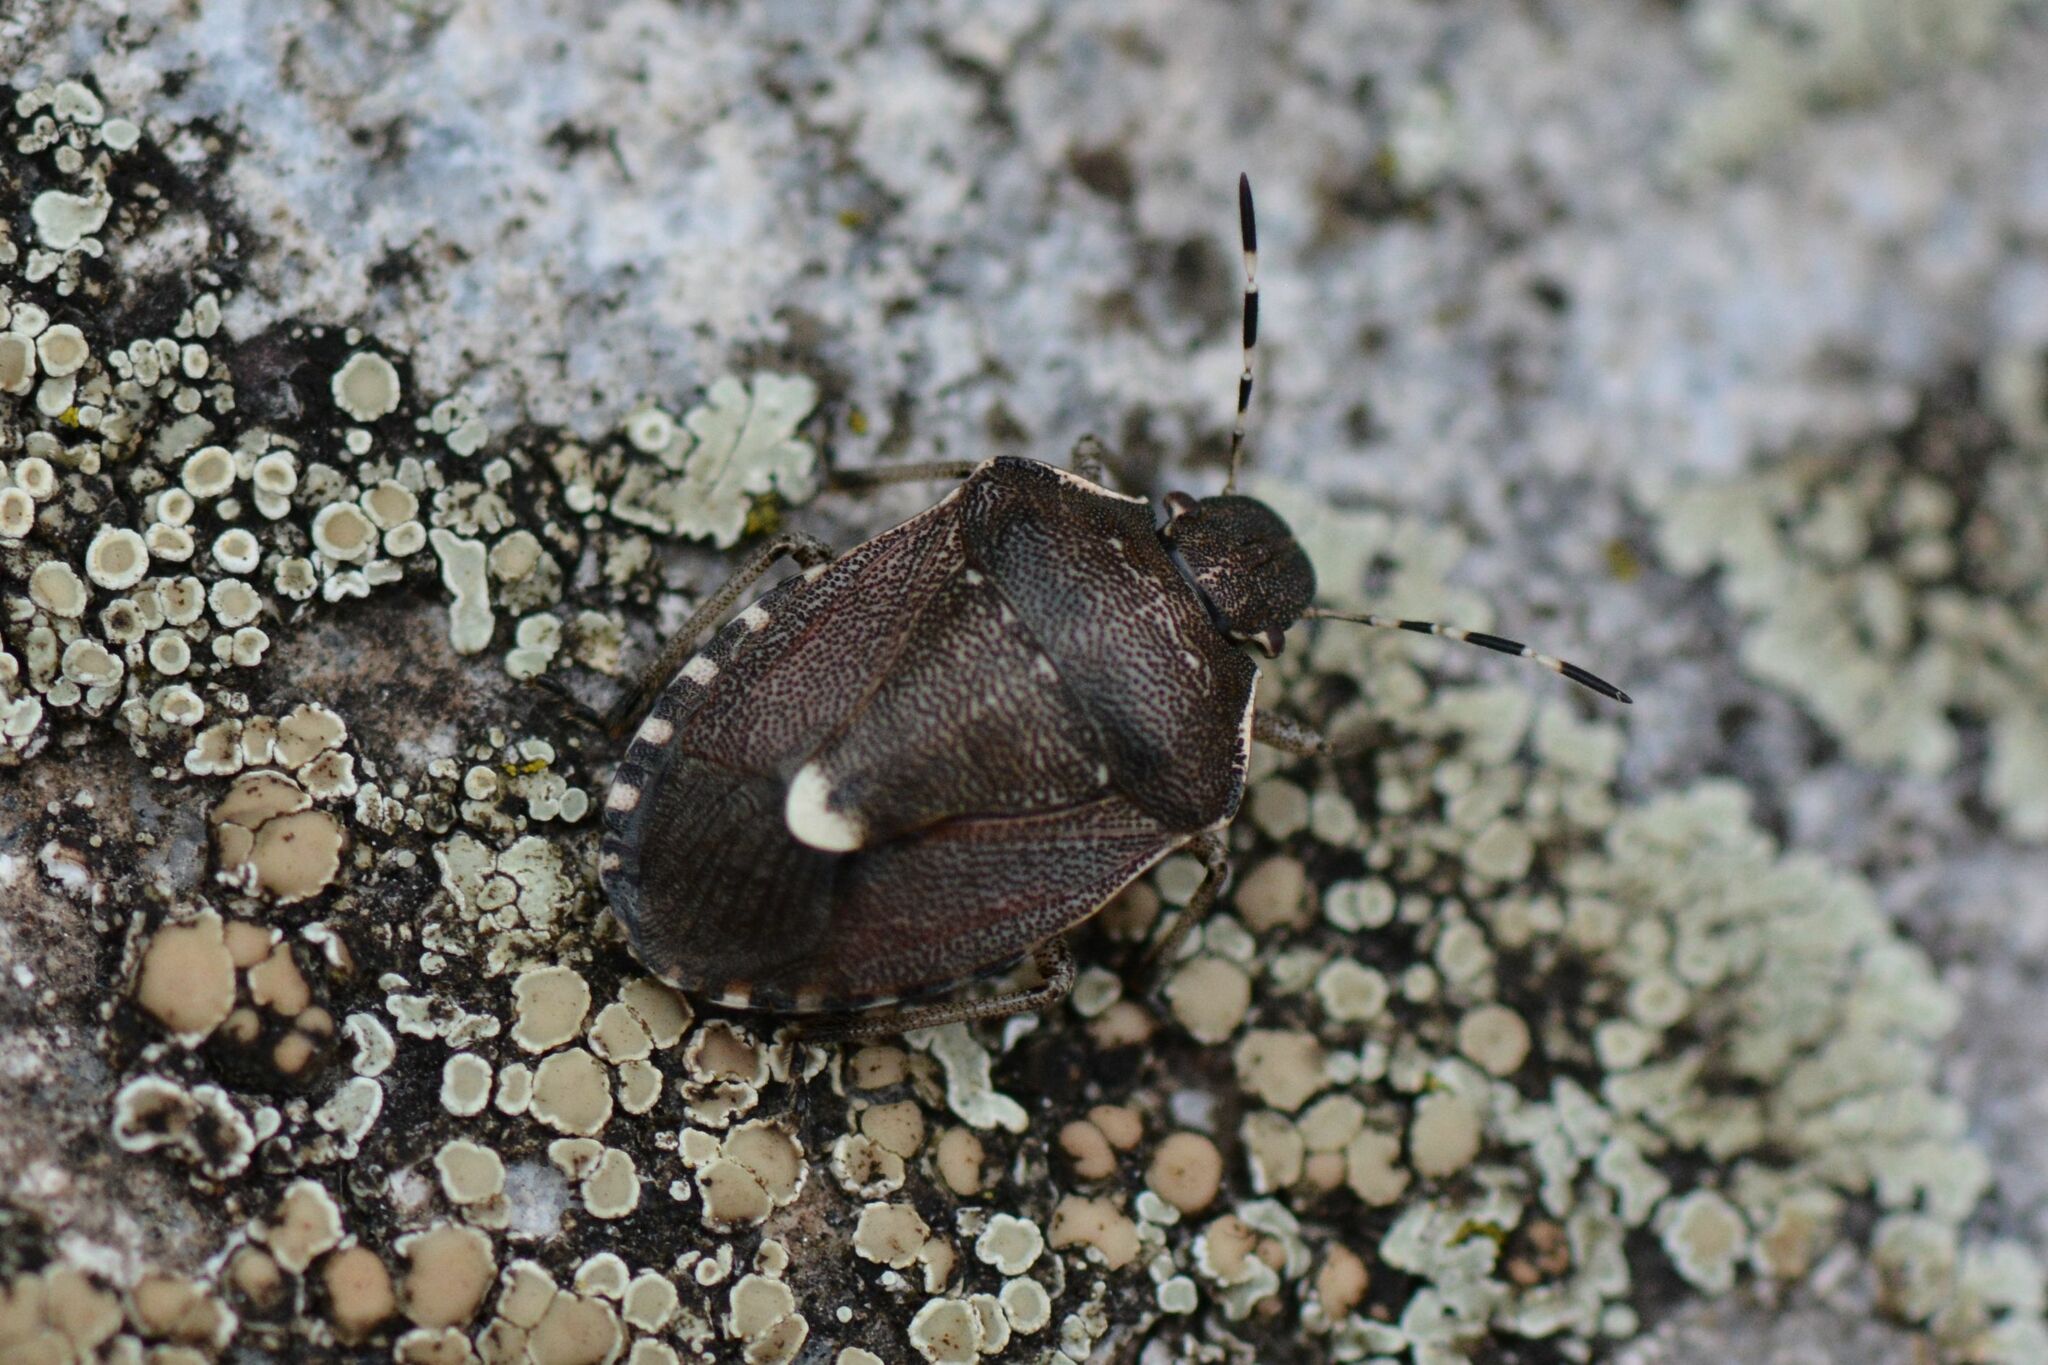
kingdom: Animalia
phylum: Arthropoda
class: Insecta
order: Hemiptera
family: Pentatomidae
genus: Holcostethus
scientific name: Holcostethus sphacelatus
